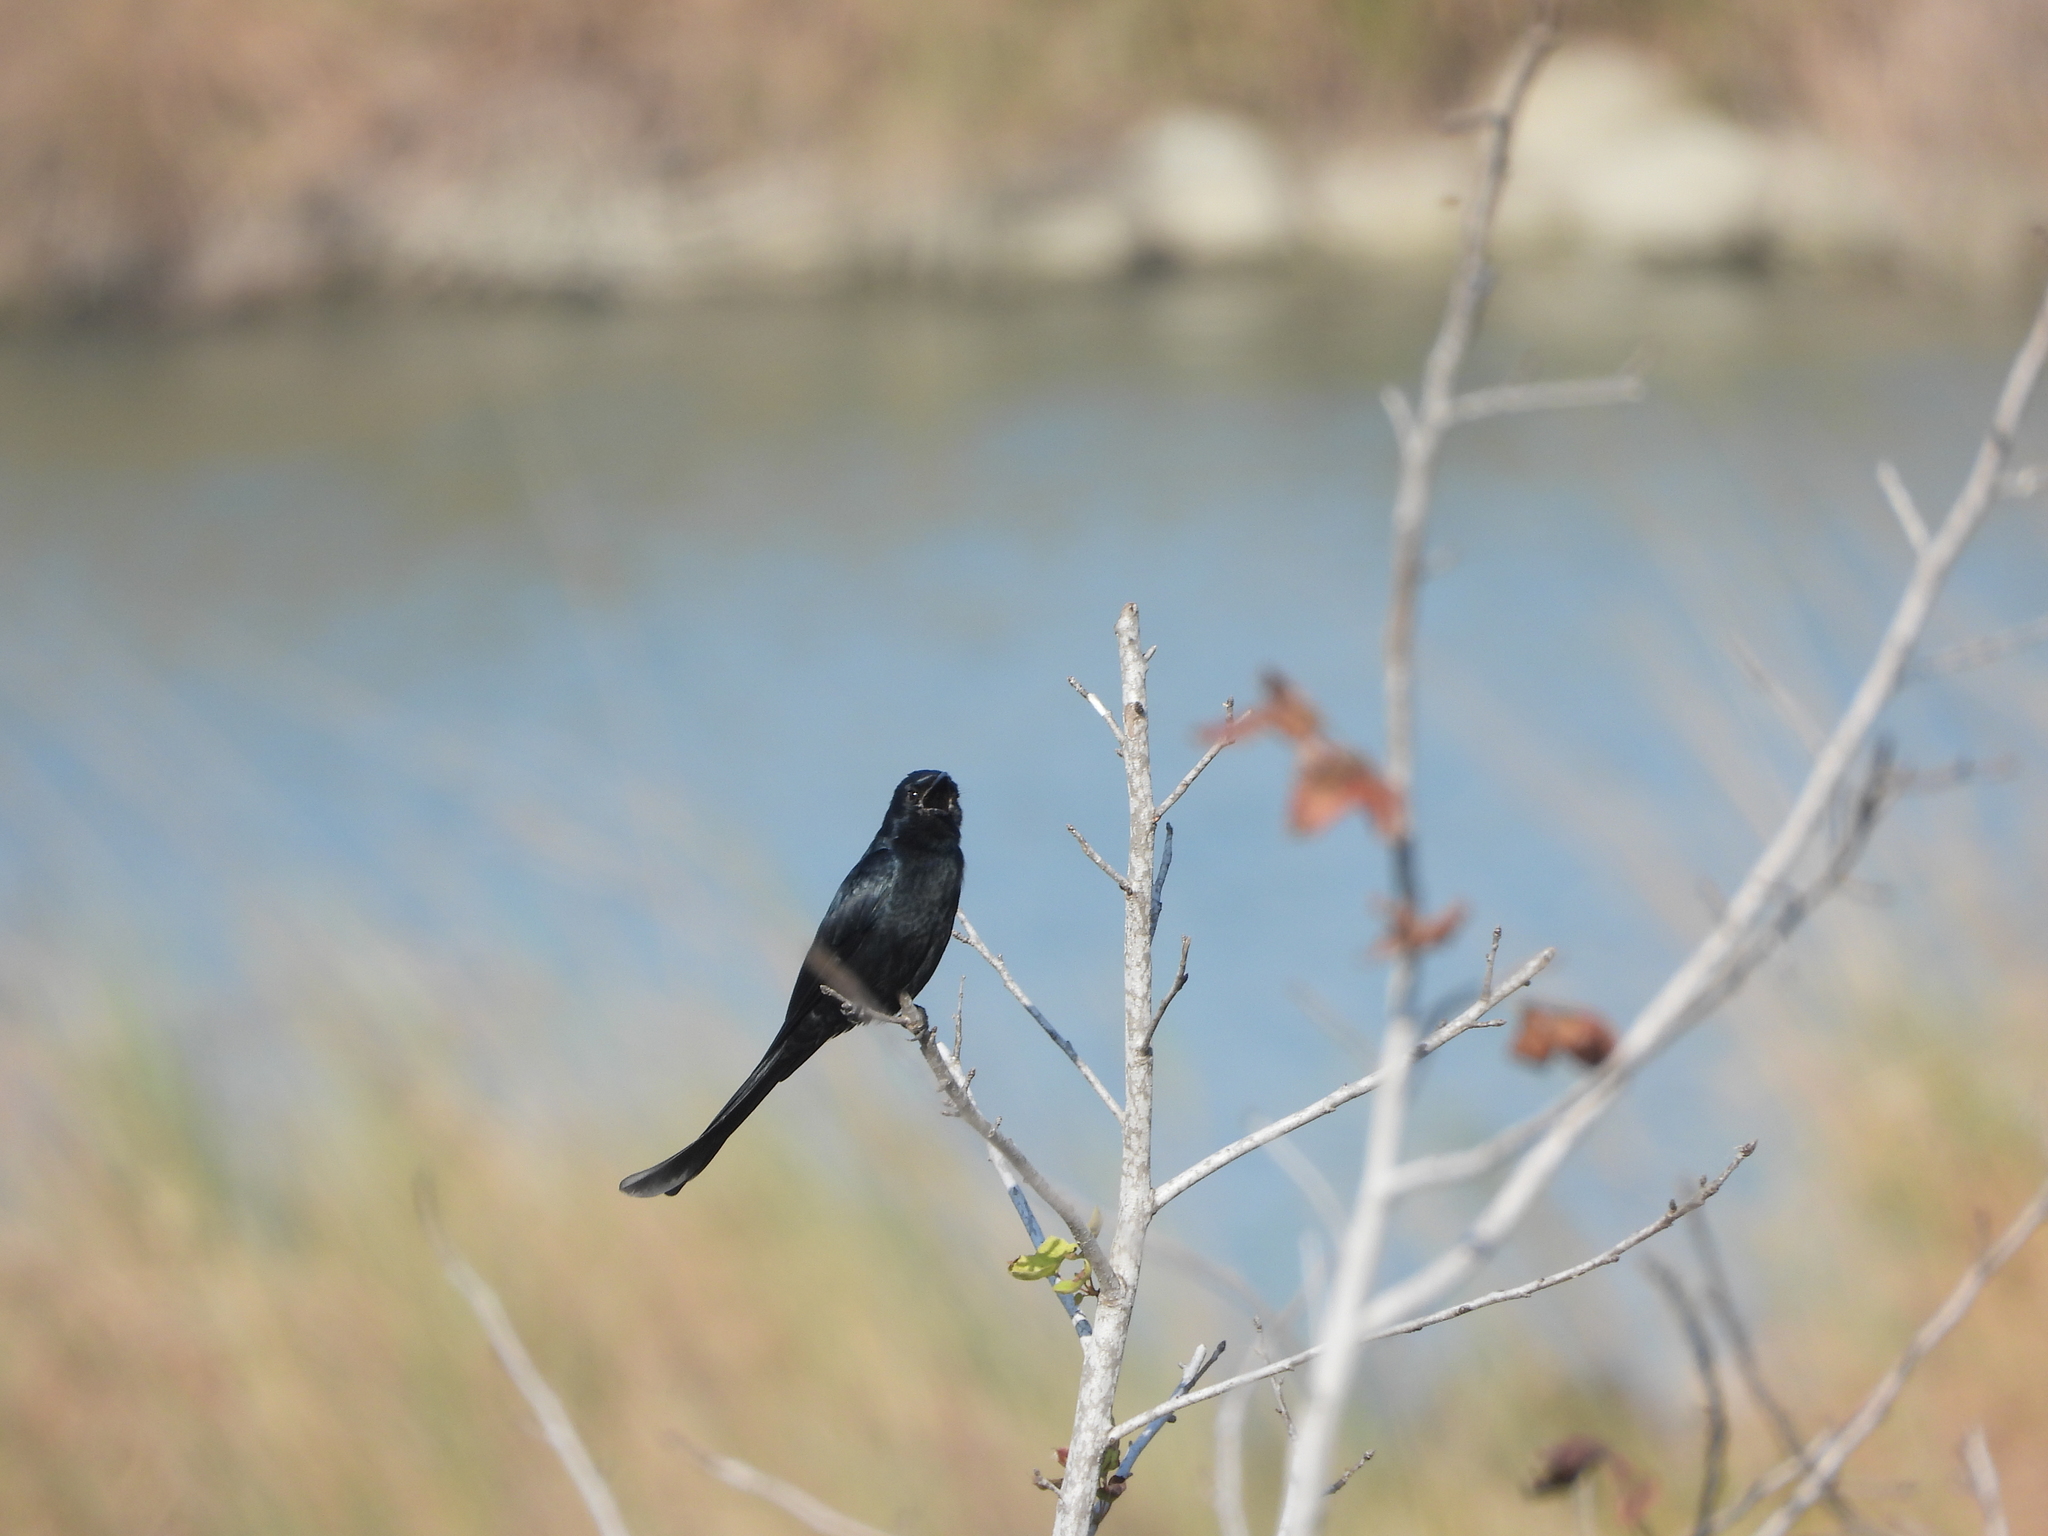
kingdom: Animalia
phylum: Chordata
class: Aves
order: Passeriformes
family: Dicruridae
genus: Dicrurus
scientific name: Dicrurus macrocercus
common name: Black drongo
